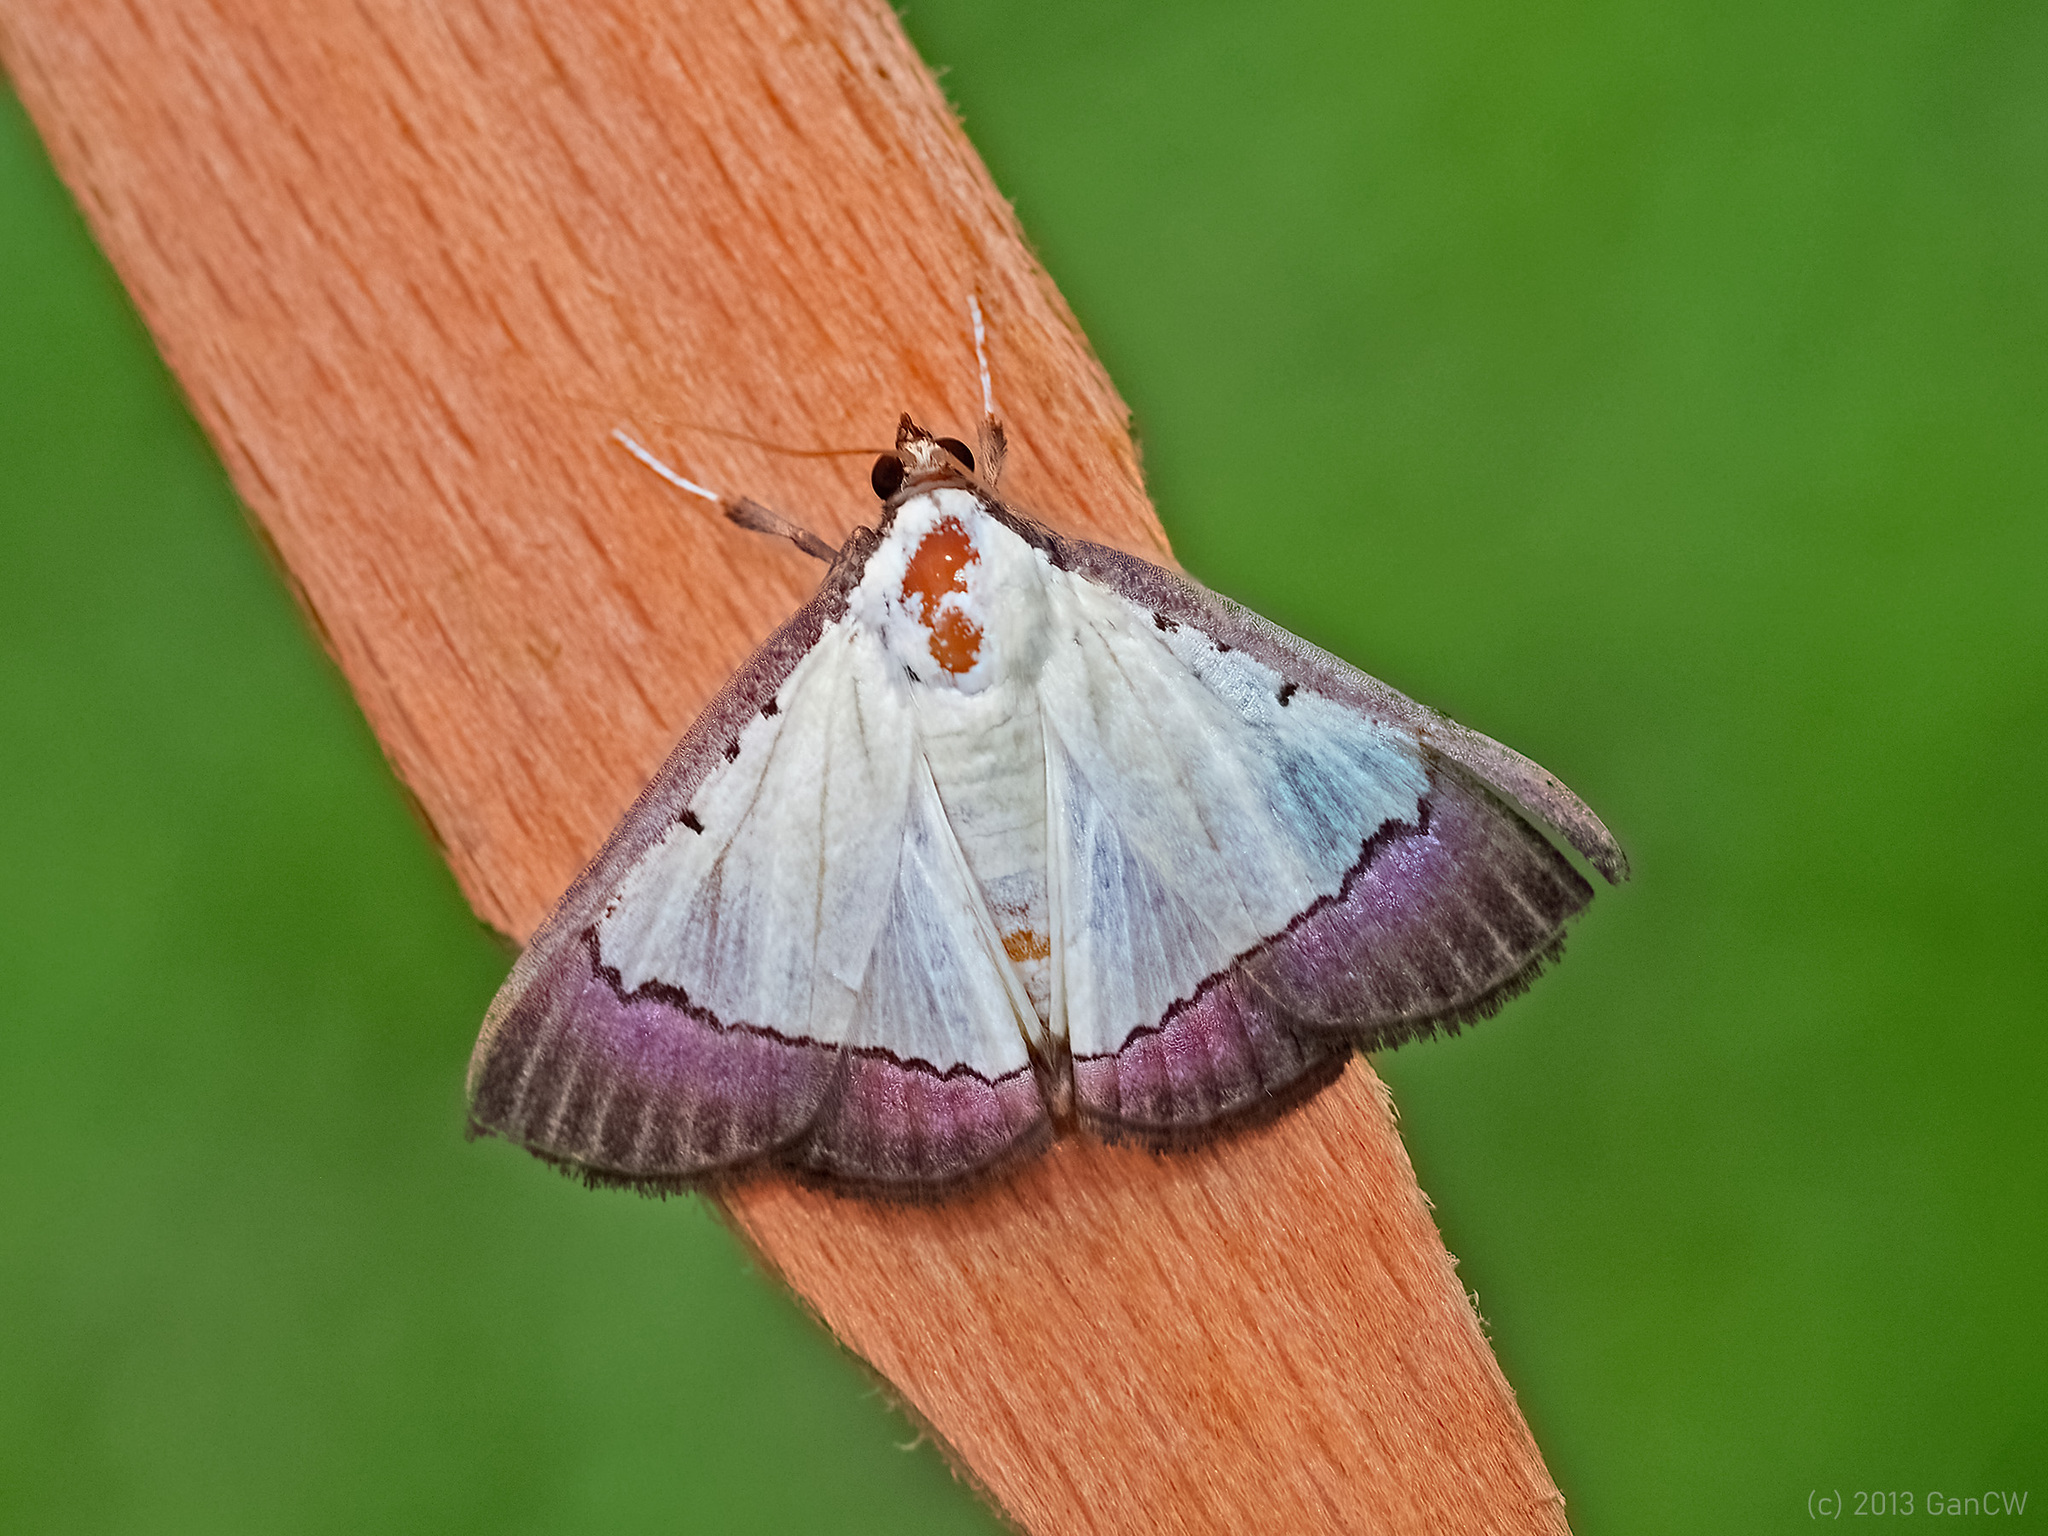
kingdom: Animalia
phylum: Arthropoda
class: Insecta
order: Lepidoptera
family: Crambidae
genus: Pitama
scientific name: Pitama hermesalis
